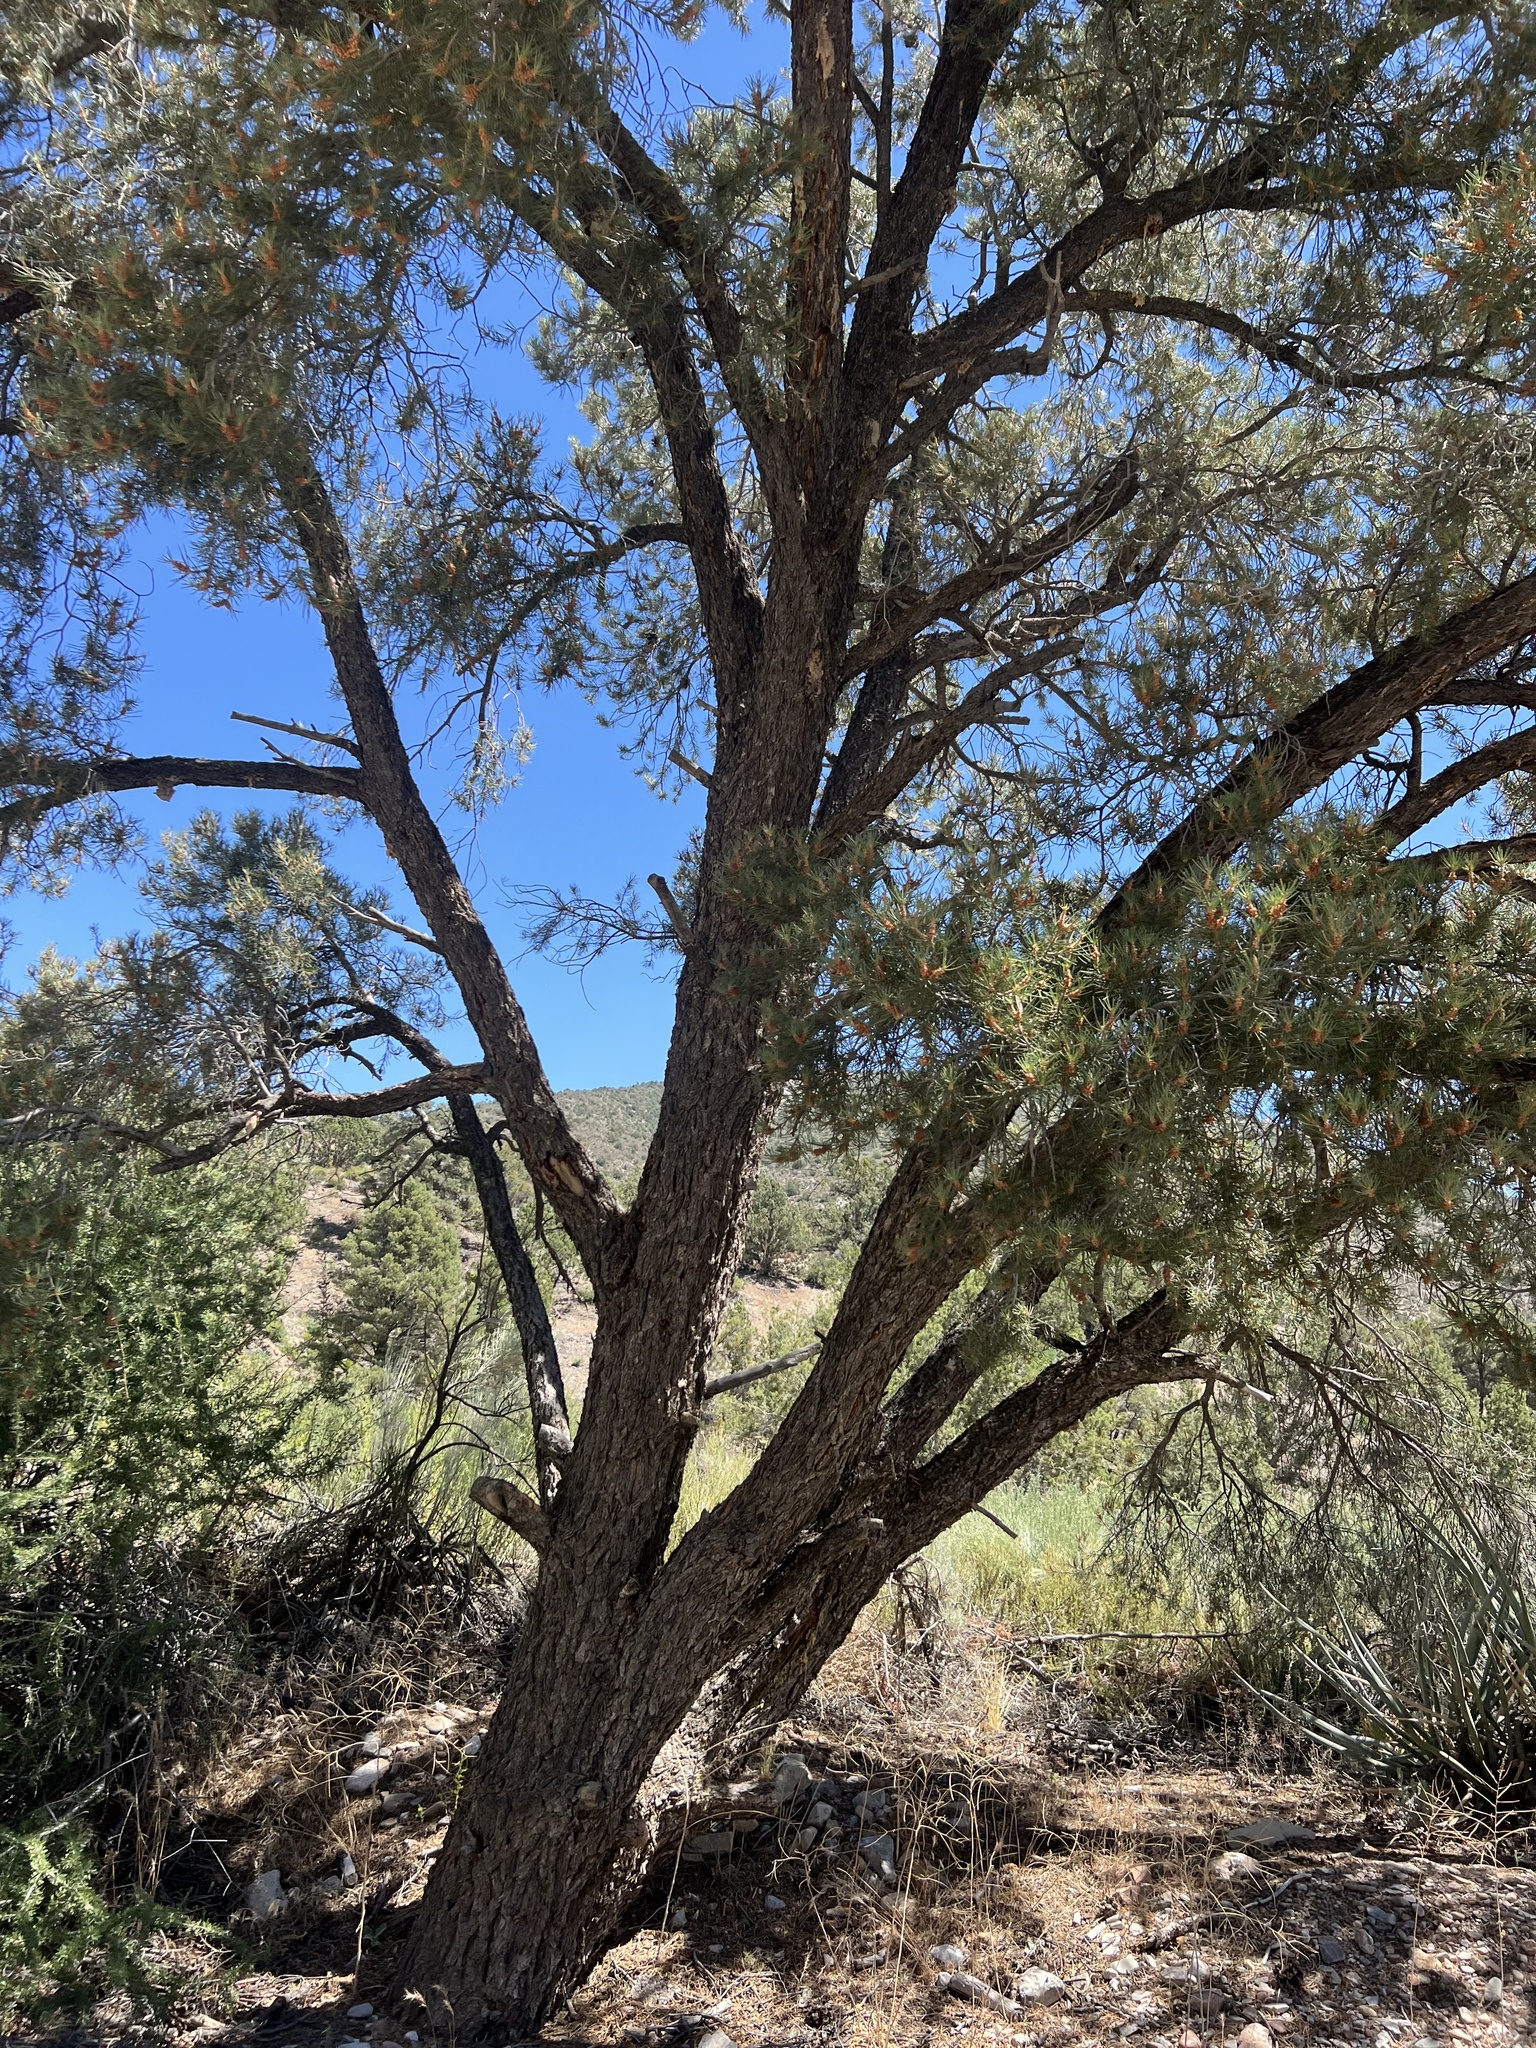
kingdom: Plantae
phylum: Tracheophyta
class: Pinopsida
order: Pinales
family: Pinaceae
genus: Pinus
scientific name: Pinus monophylla
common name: One-leaved nut pine
